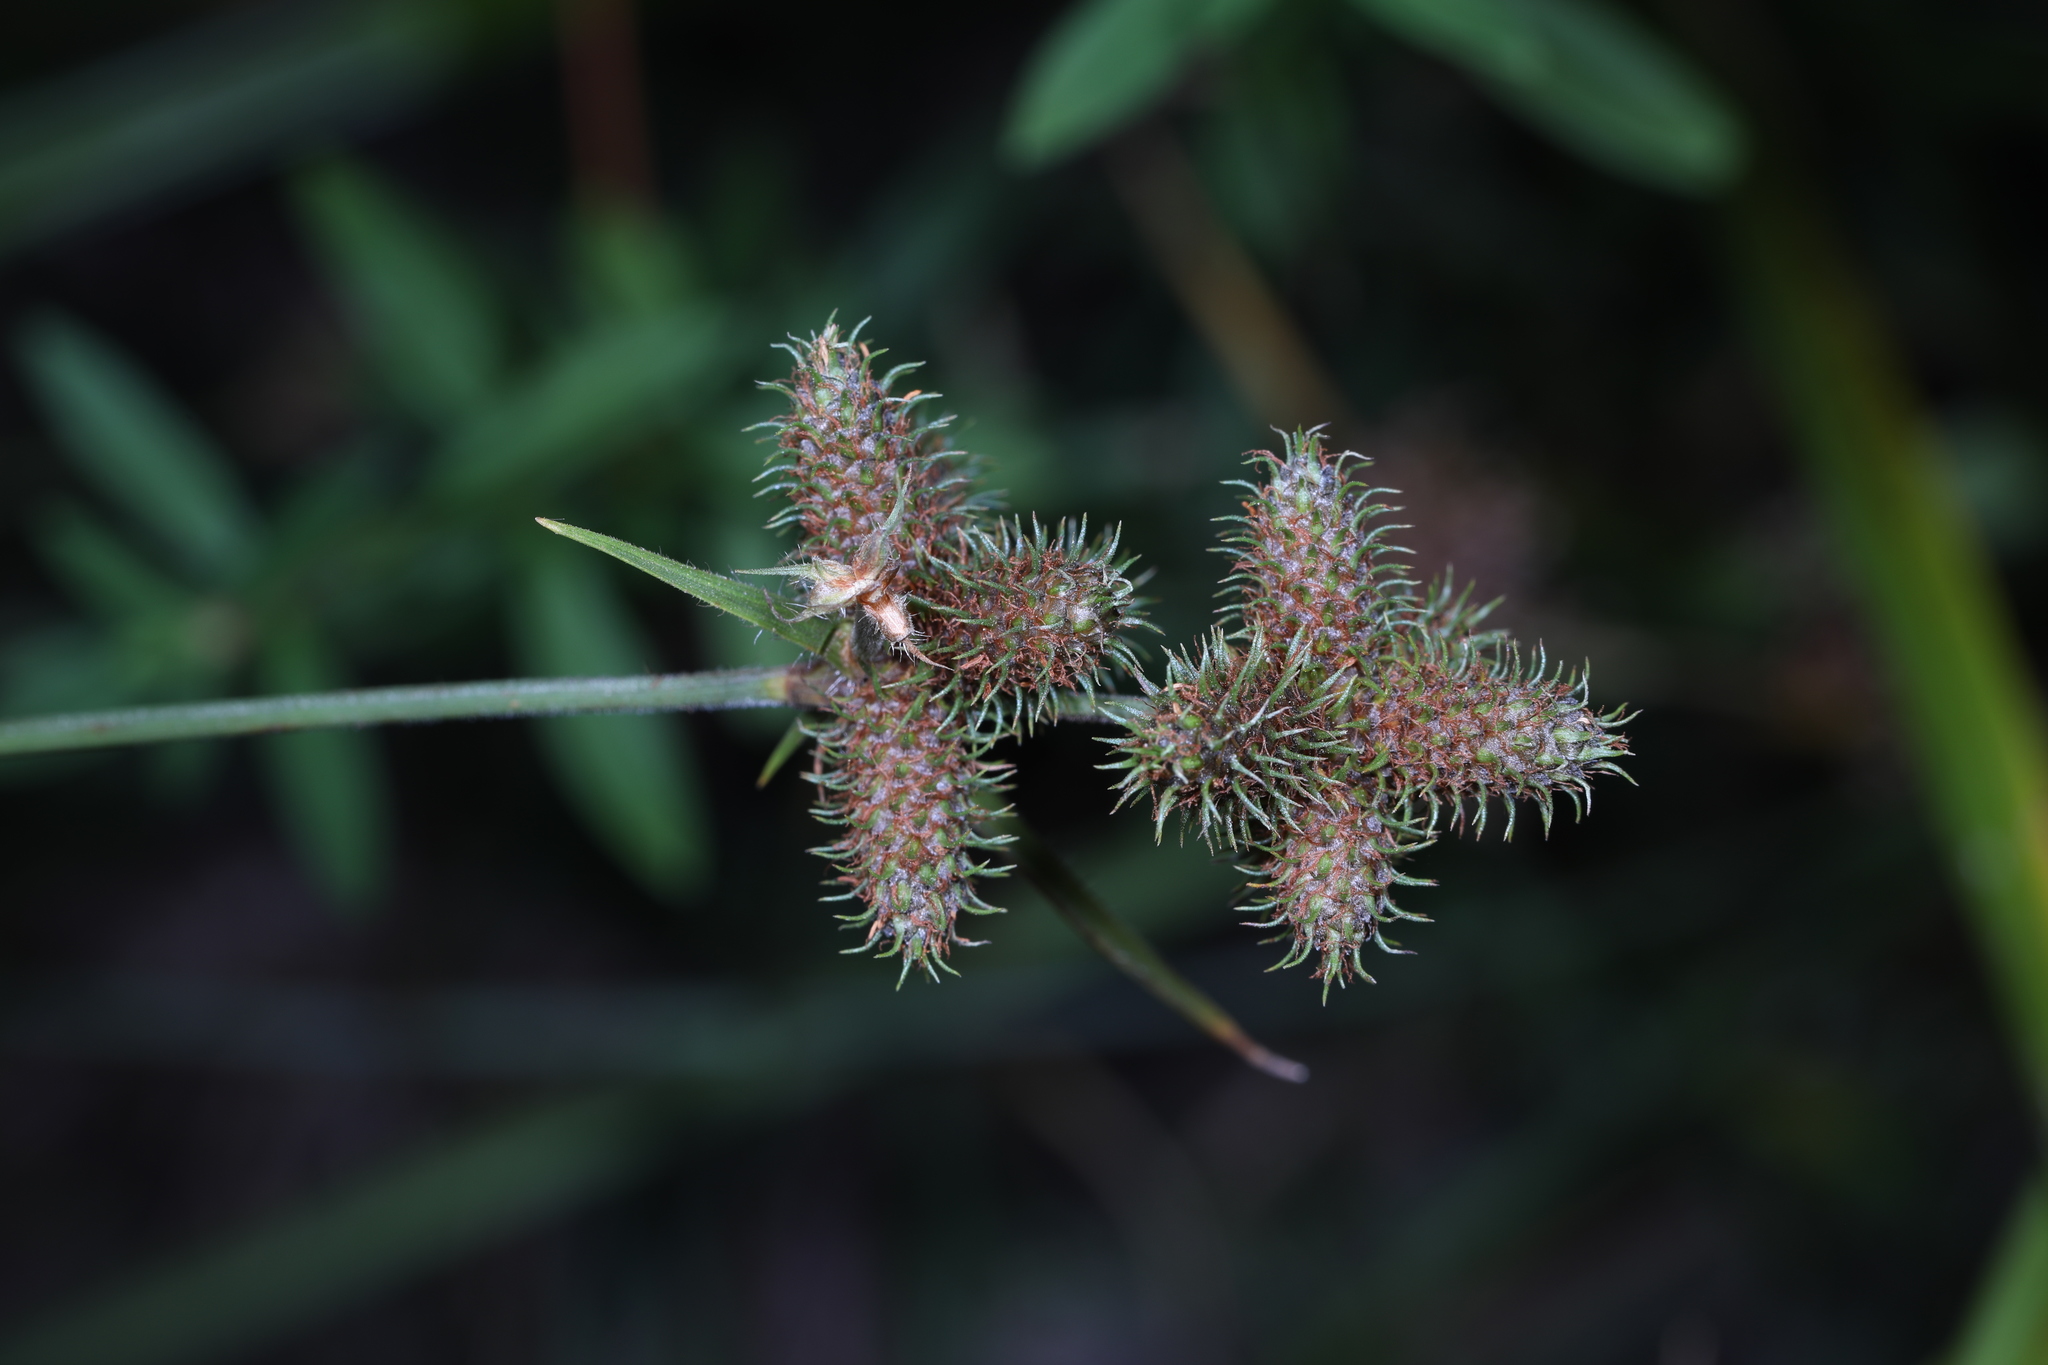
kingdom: Plantae
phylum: Tracheophyta
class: Liliopsida
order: Poales
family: Cyperaceae
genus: Fuirena
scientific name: Fuirena breviseta
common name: Saltmarsh umbrella sedge
